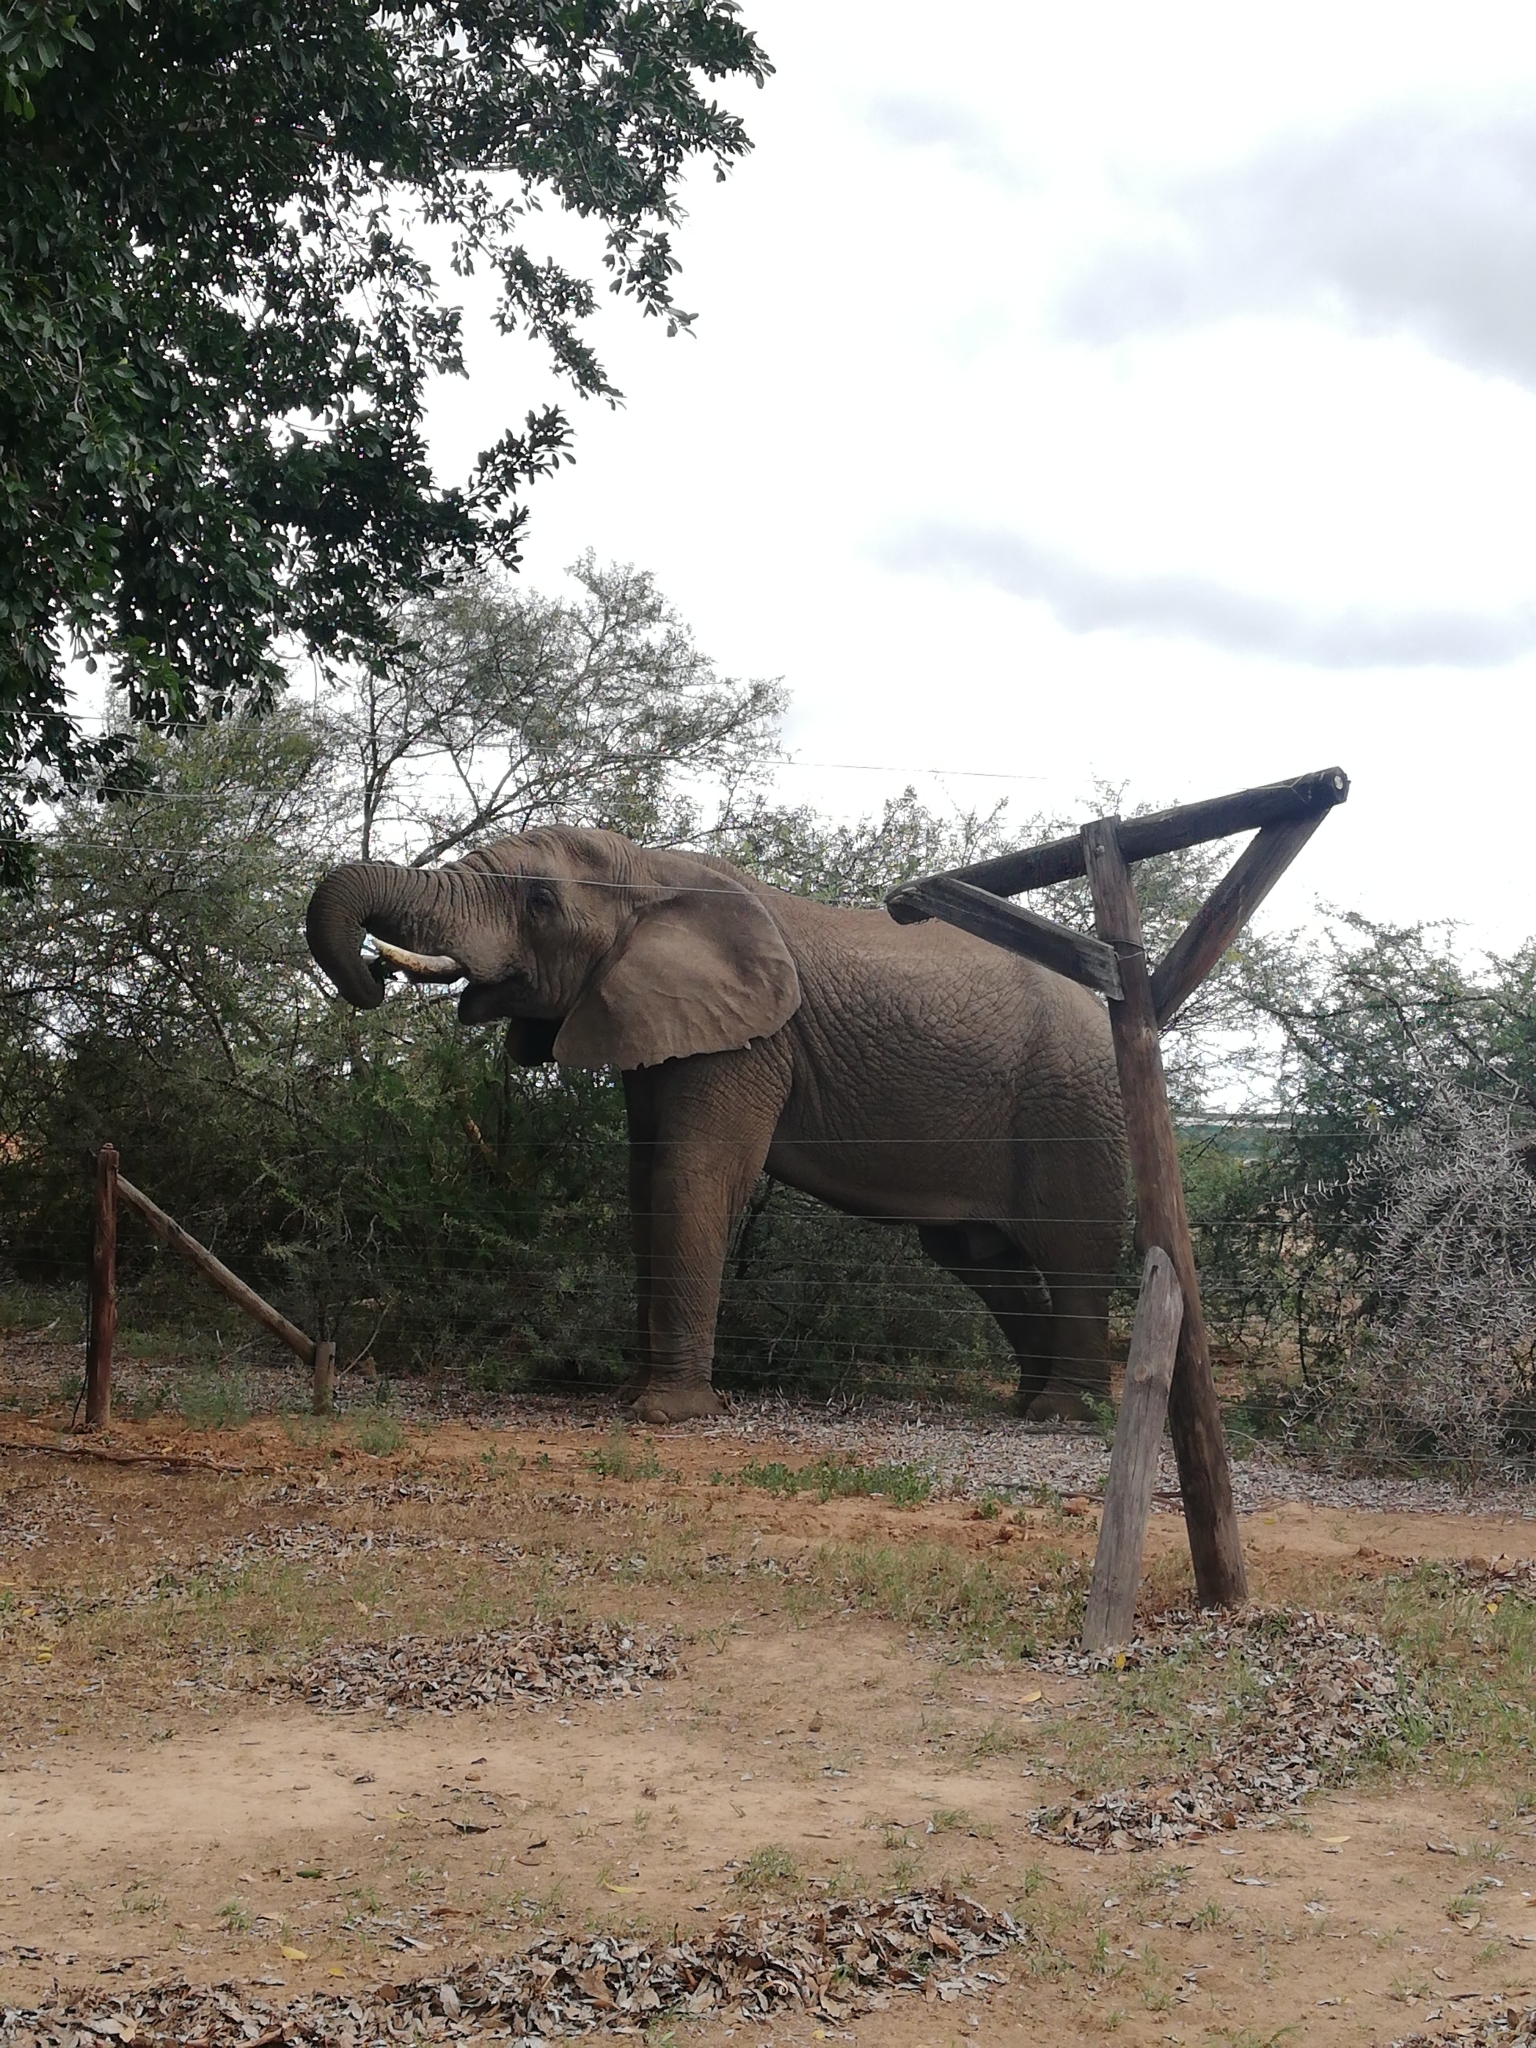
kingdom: Animalia
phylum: Chordata
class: Mammalia
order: Proboscidea
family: Elephantidae
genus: Loxodonta
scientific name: Loxodonta africana
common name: African elephant
